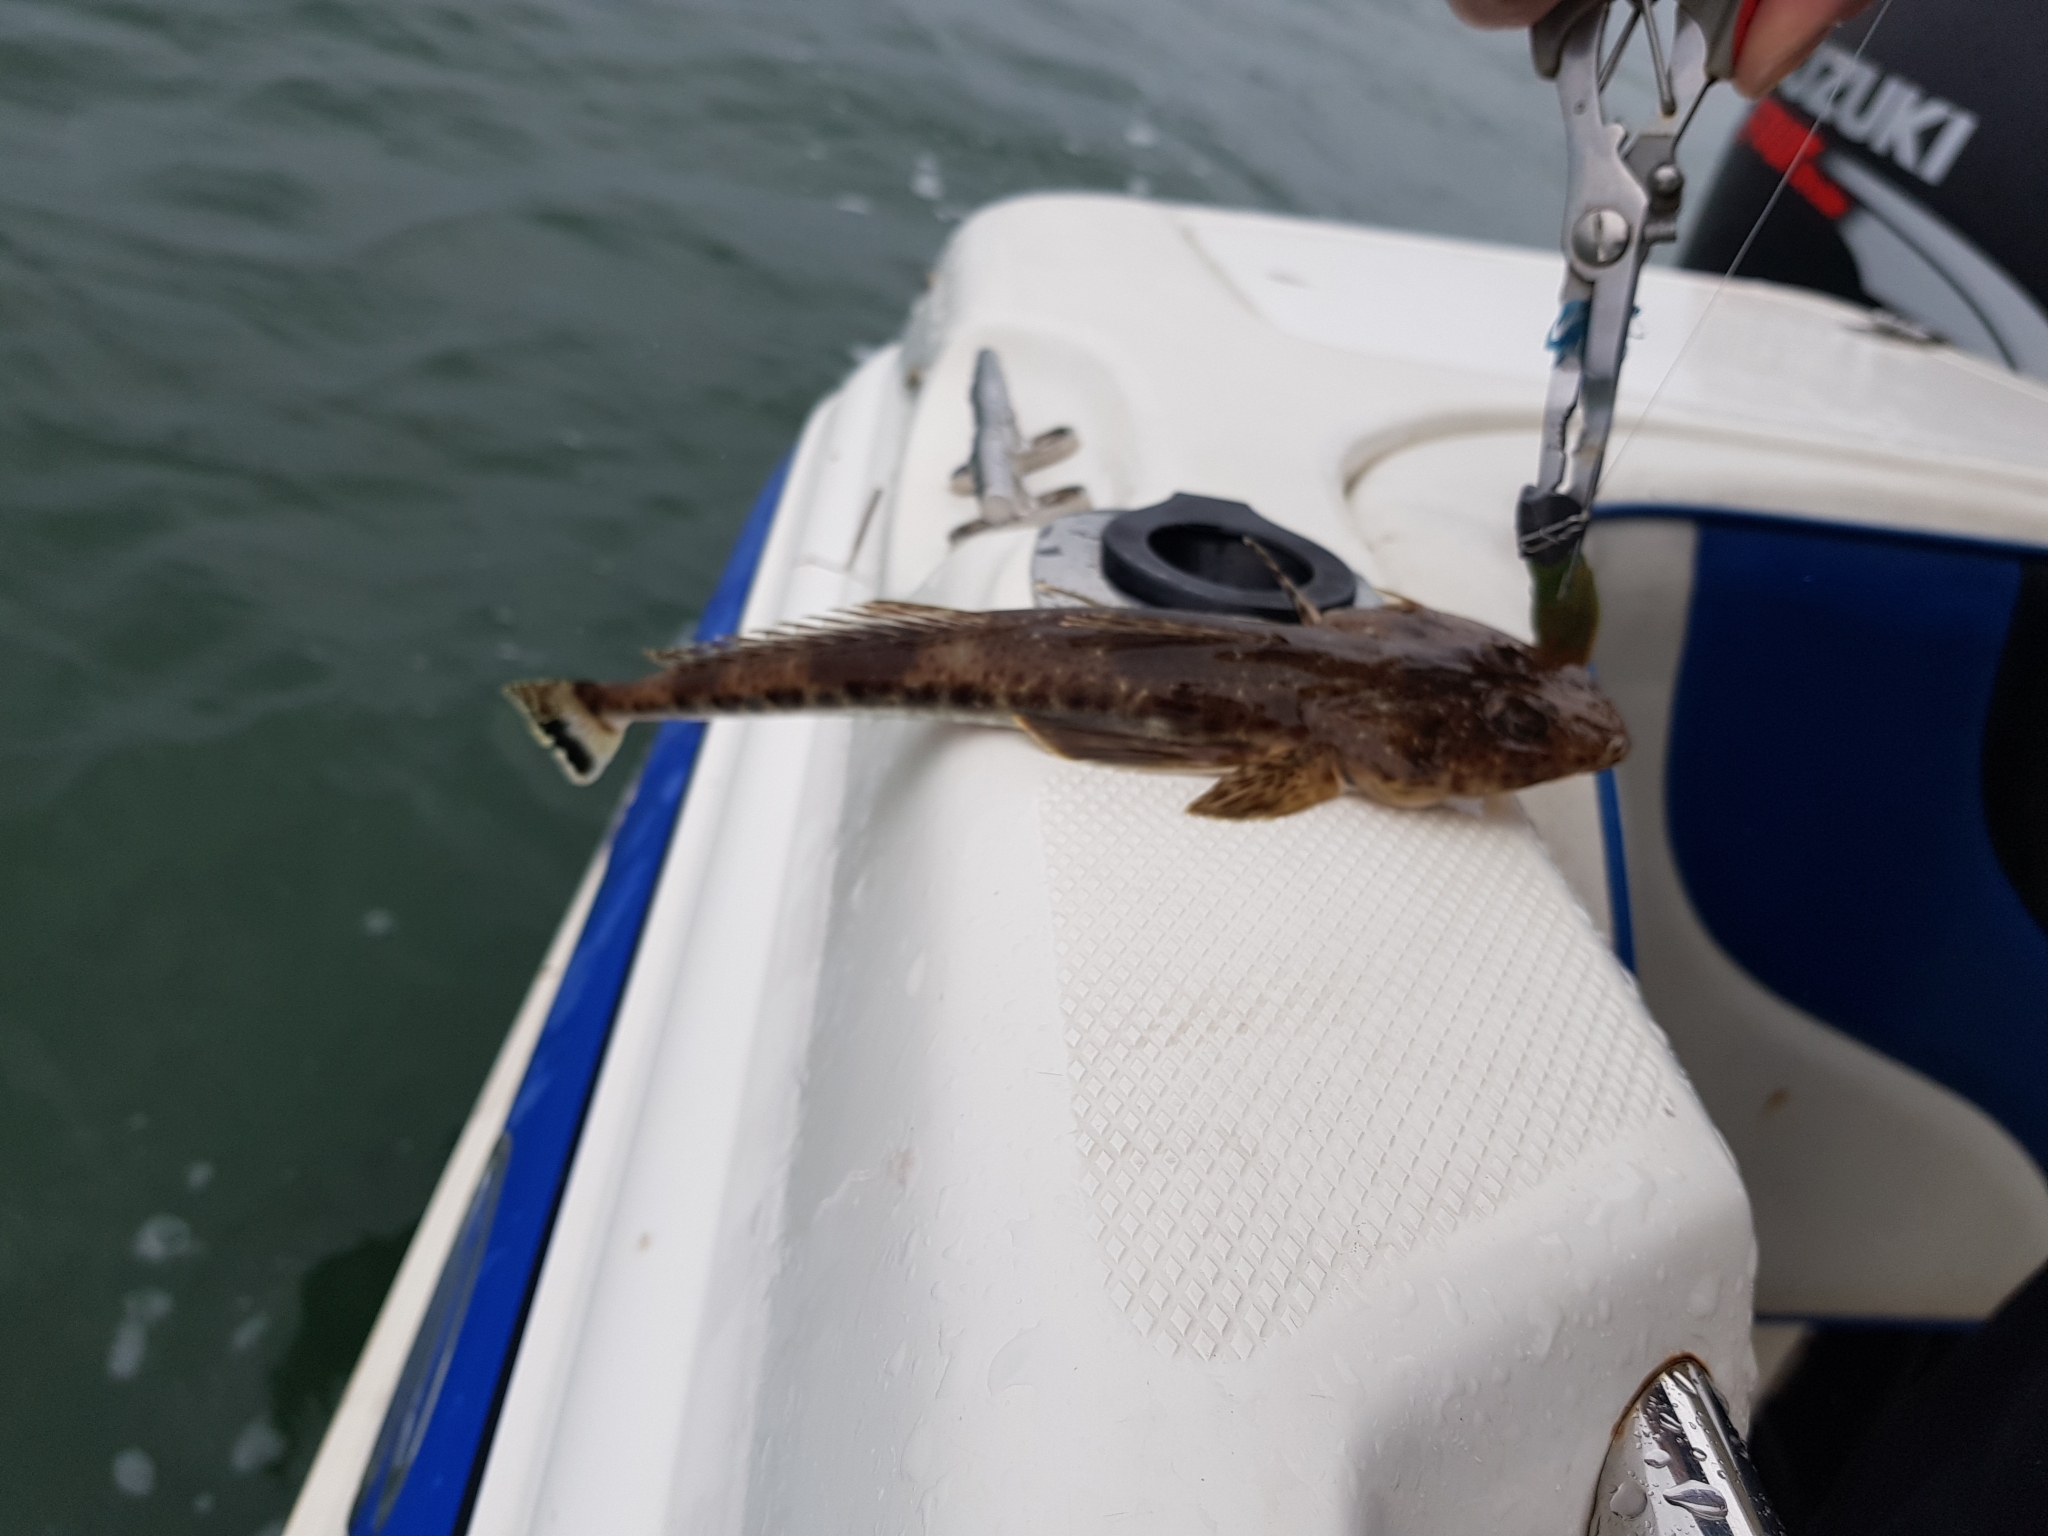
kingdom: Animalia
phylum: Chordata
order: Scorpaeniformes
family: Platycephalidae
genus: Platycephalus
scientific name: Platycephalus bassensis
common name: Sand flathead
